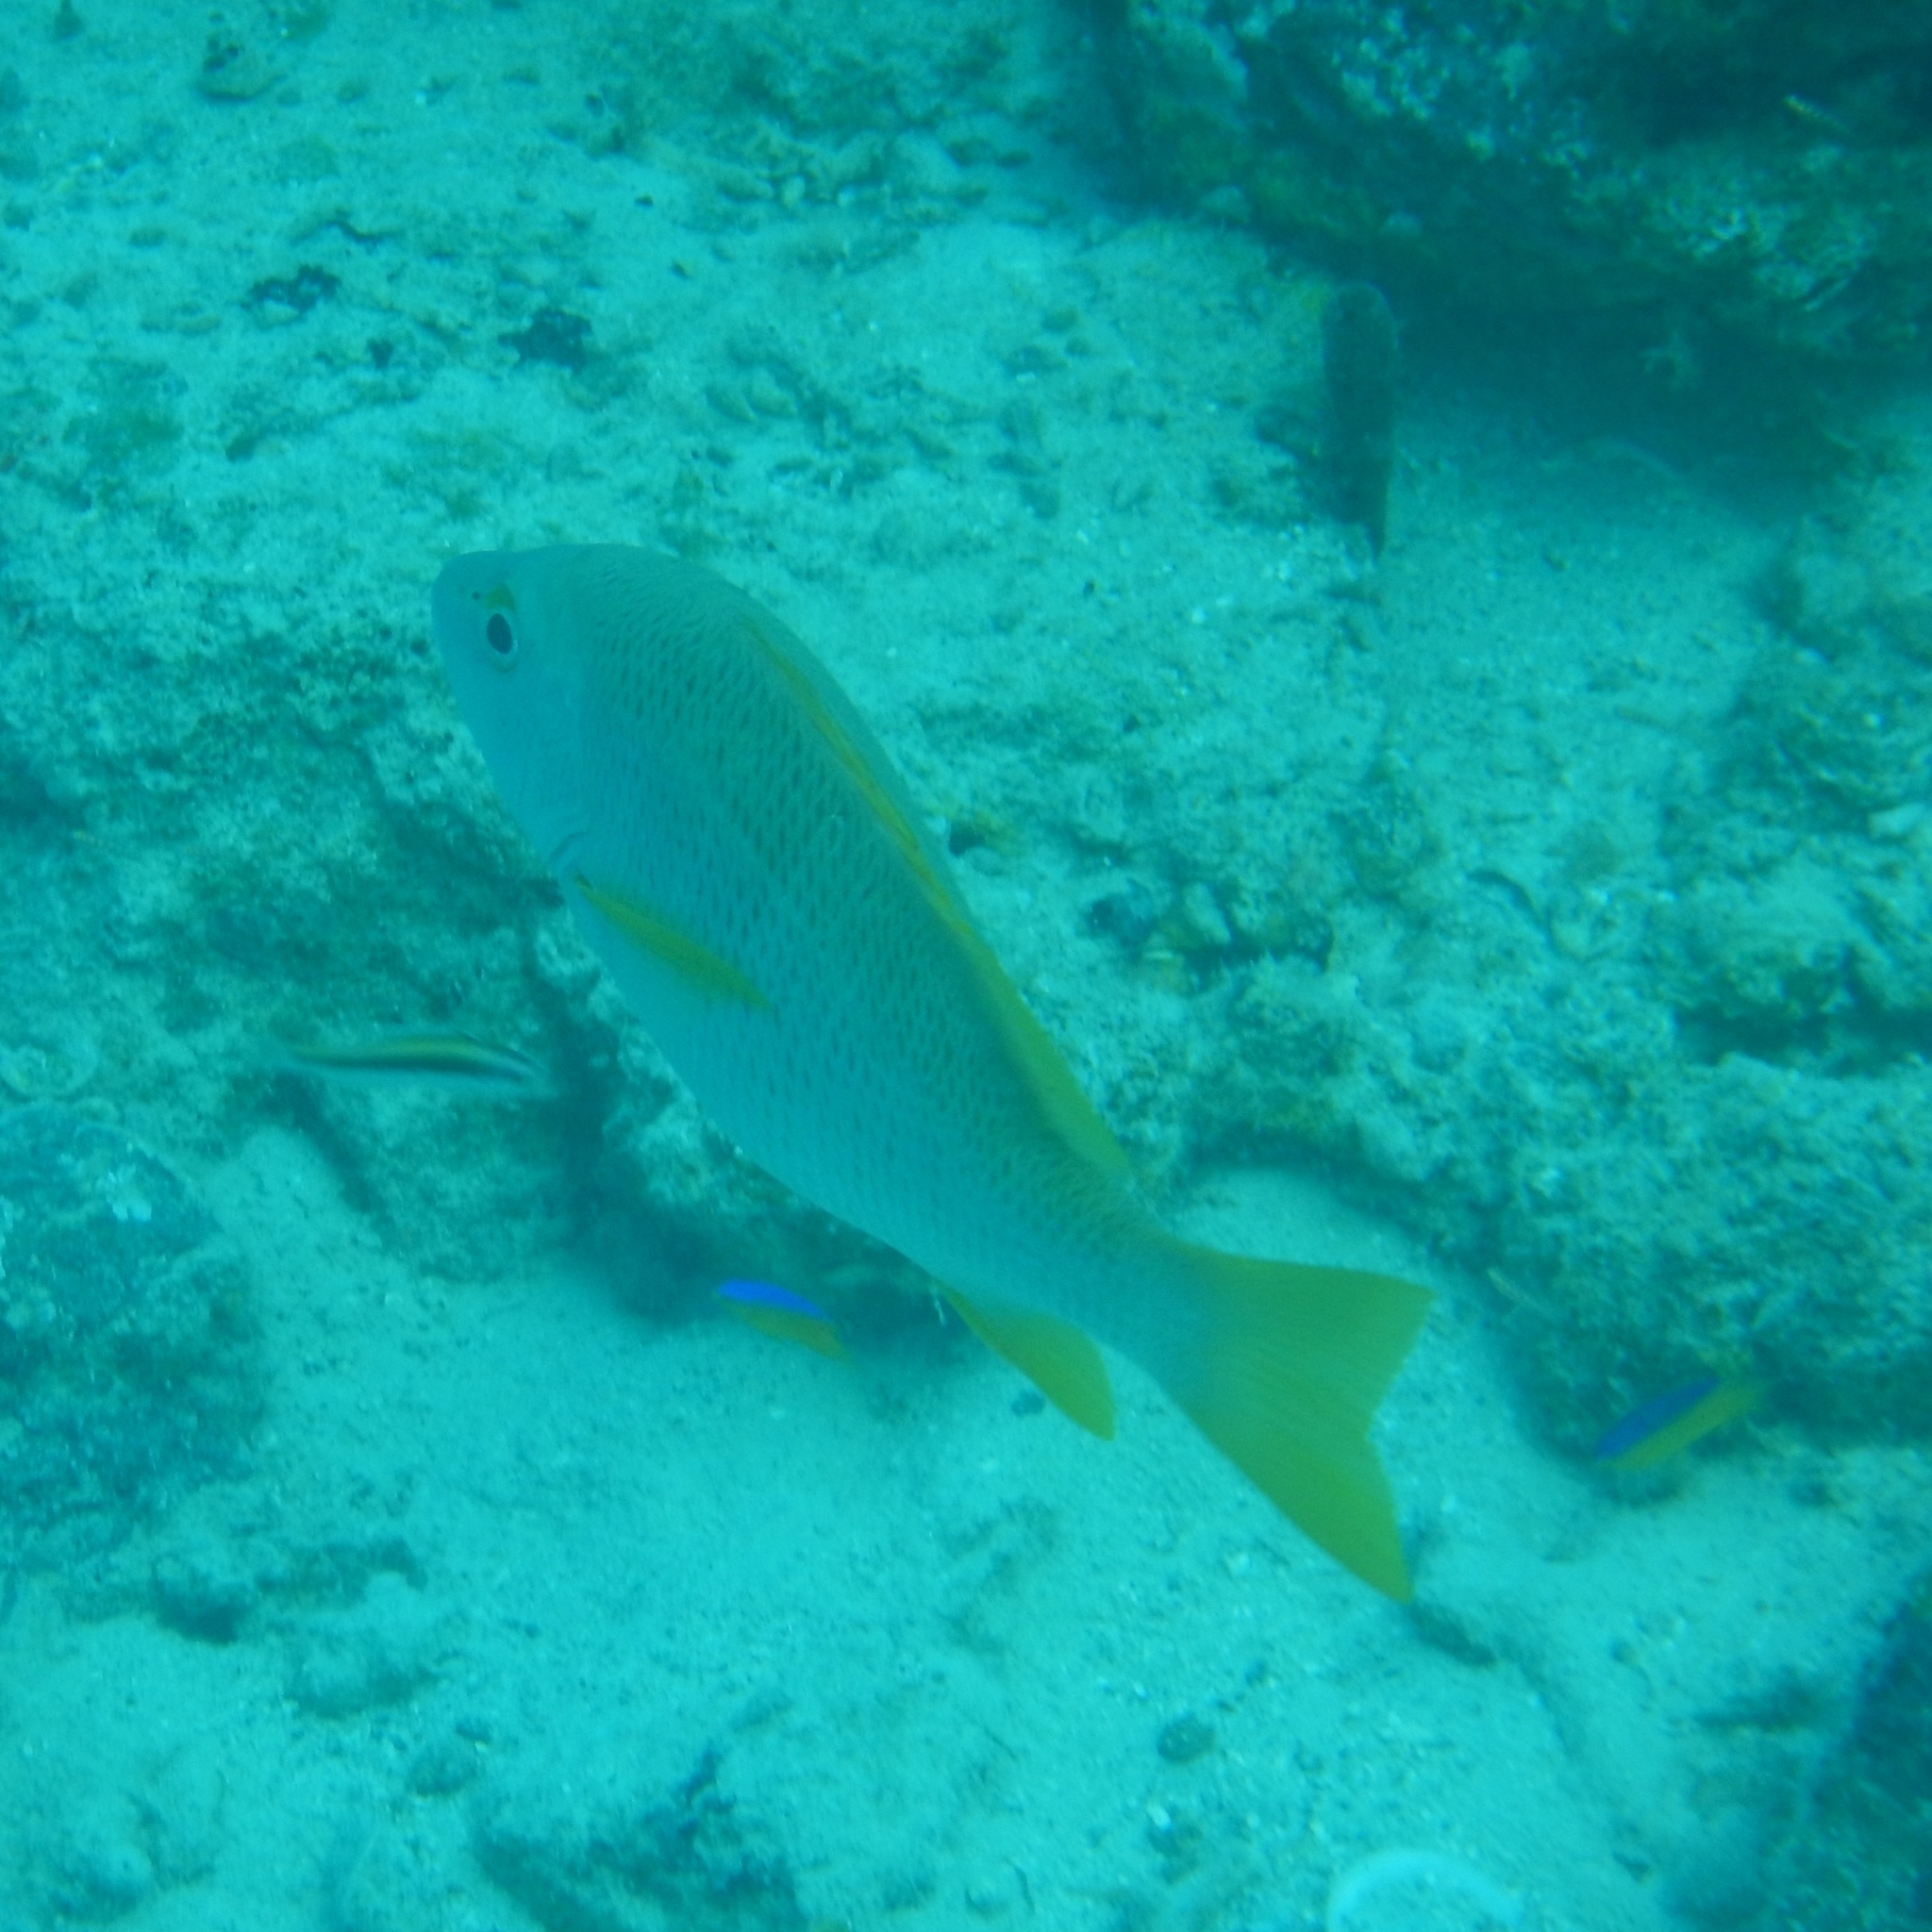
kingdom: Animalia
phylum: Chordata
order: Perciformes
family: Lutjanidae
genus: Lutjanus
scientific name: Lutjanus apodus
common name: Schoolmaster
